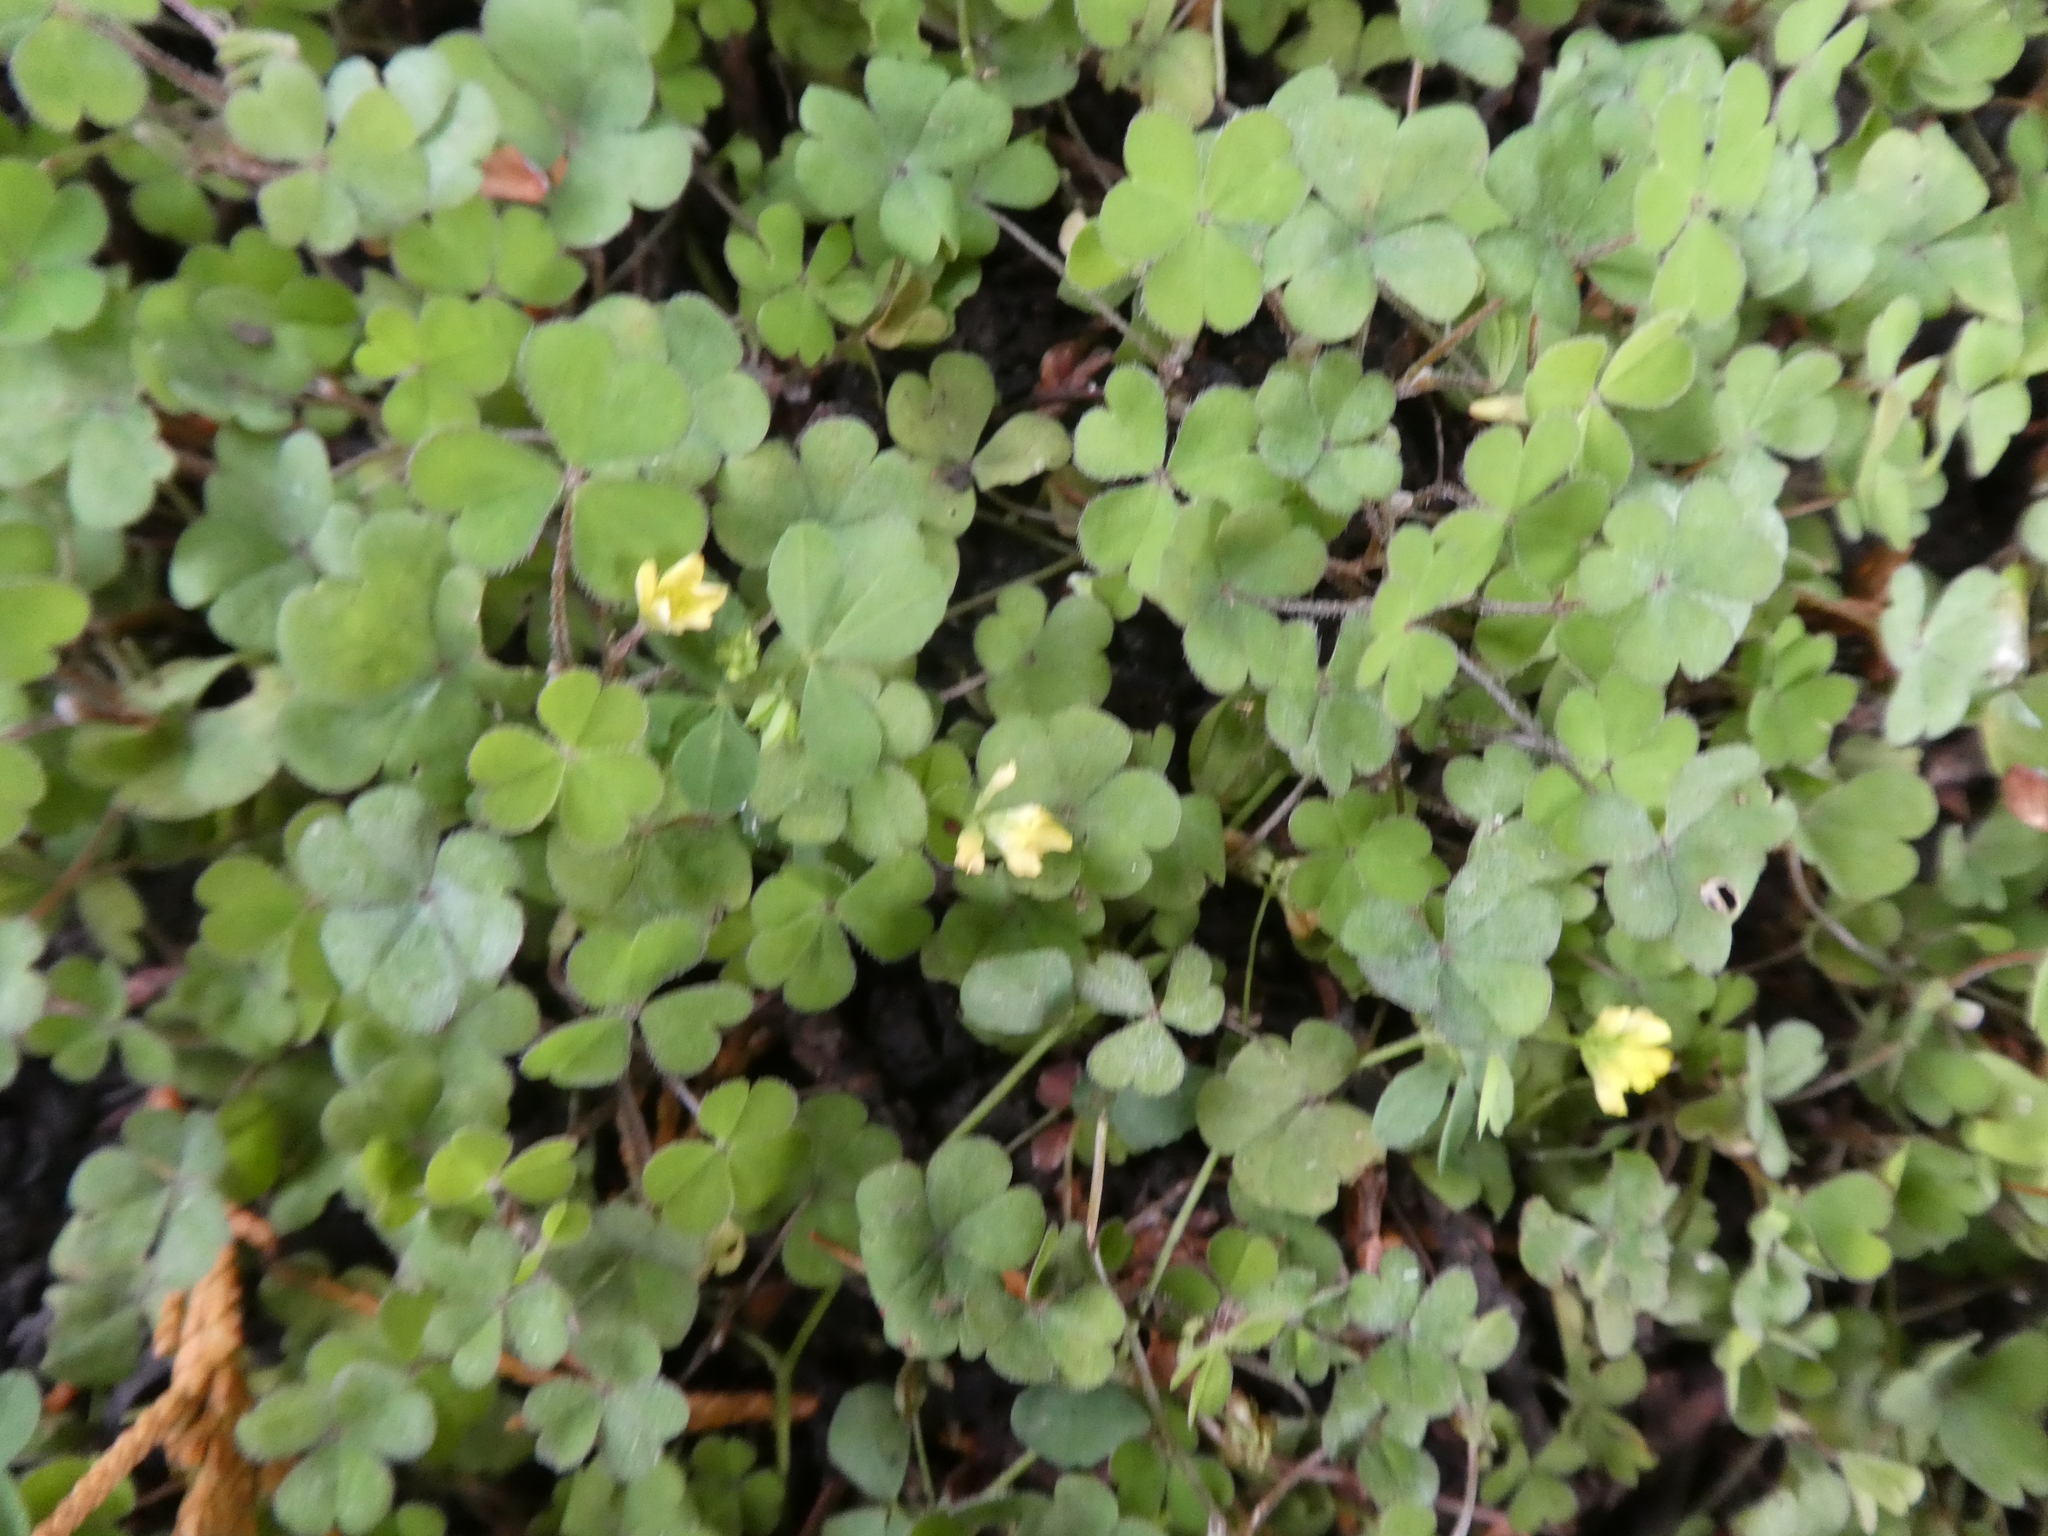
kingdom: Plantae
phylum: Tracheophyta
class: Magnoliopsida
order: Oxalidales
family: Oxalidaceae
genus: Oxalis
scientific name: Oxalis corniculata
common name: Procumbent yellow-sorrel
